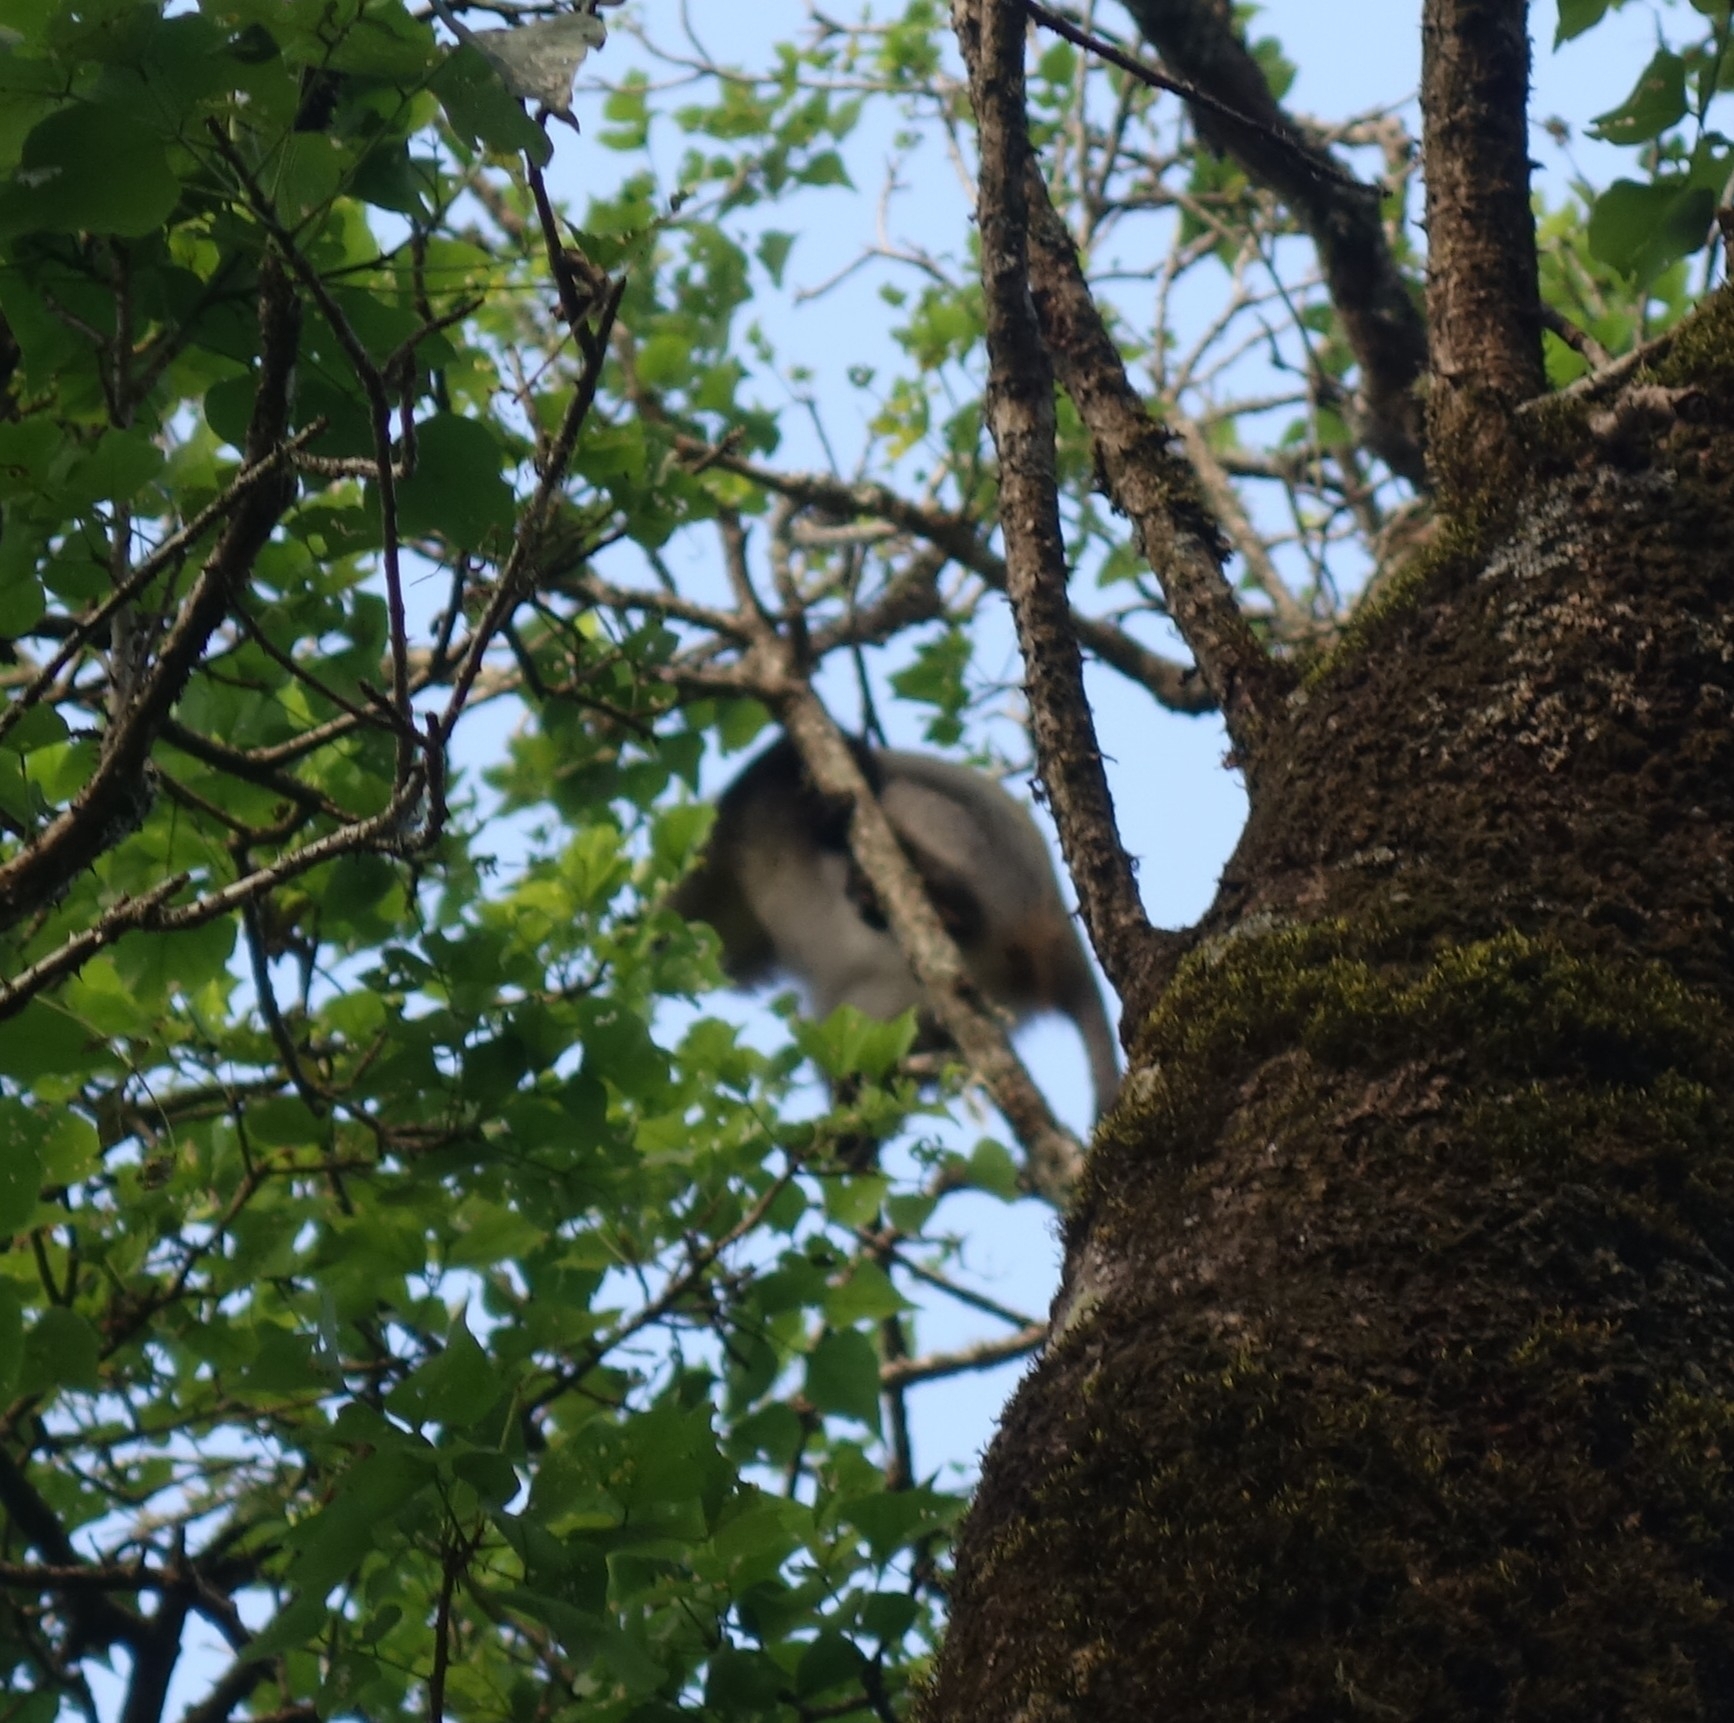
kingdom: Animalia
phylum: Chordata
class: Mammalia
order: Primates
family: Cercopithecidae
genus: Cercopithecus
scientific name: Cercopithecus mitis
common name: Blue monkey
